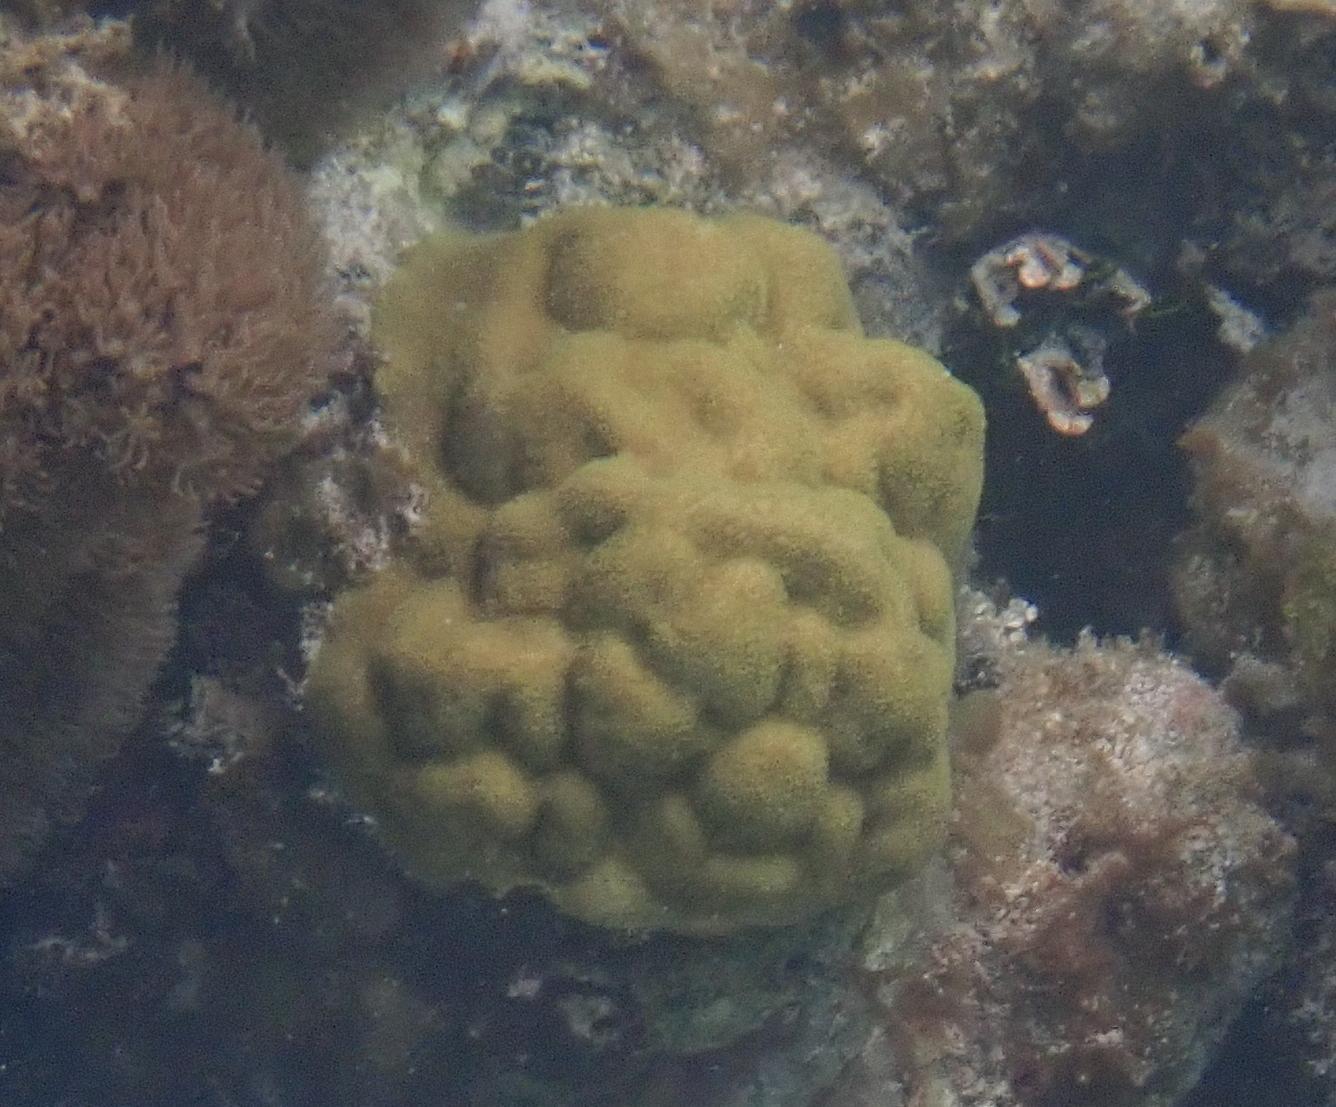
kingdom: Animalia
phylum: Cnidaria
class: Anthozoa
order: Scleractinia
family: Poritidae
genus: Porites
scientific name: Porites astreoides
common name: Mustard hill coral
